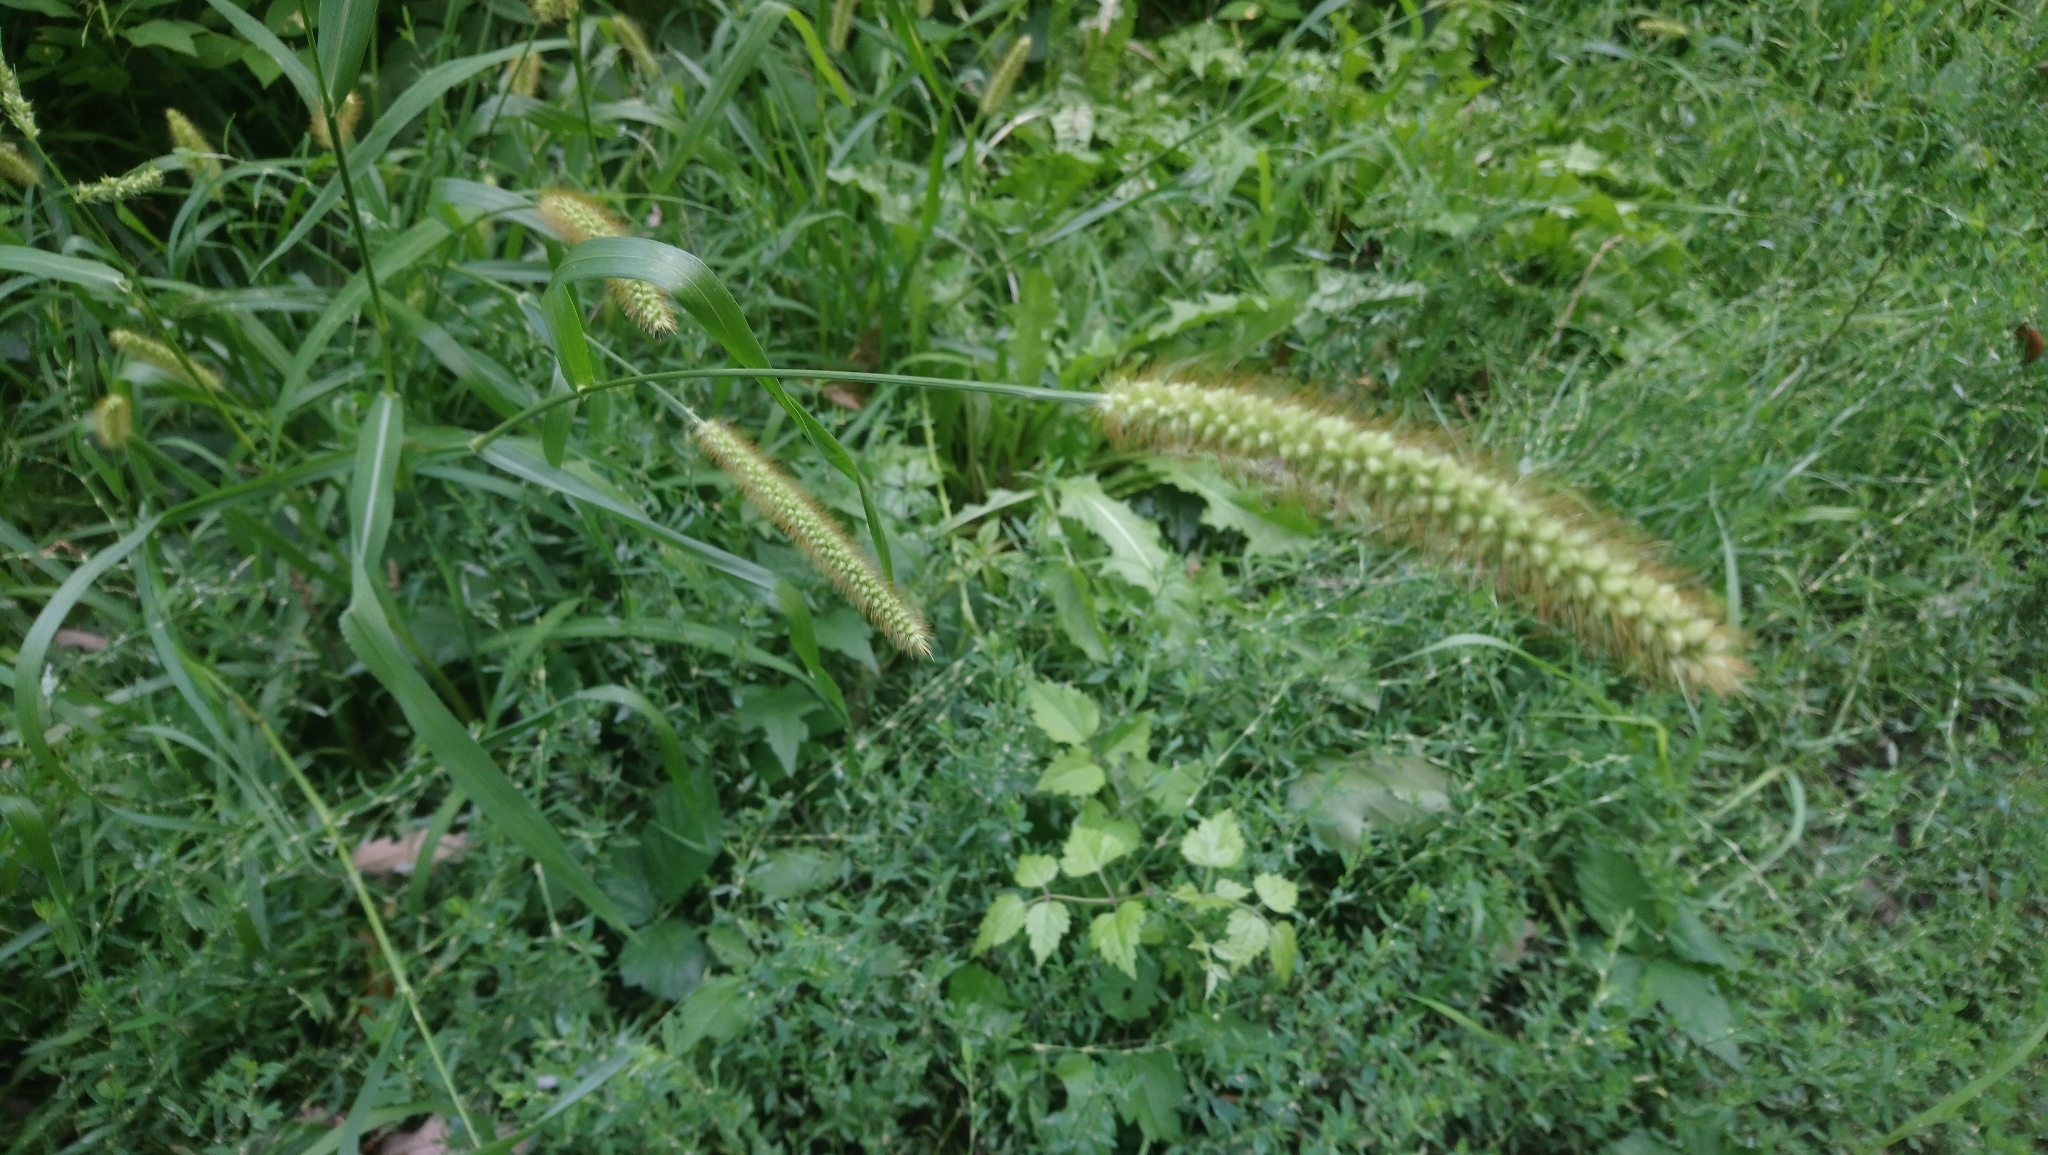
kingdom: Plantae
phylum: Tracheophyta
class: Liliopsida
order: Poales
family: Poaceae
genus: Setaria
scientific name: Setaria pumila
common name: Yellow bristle-grass
